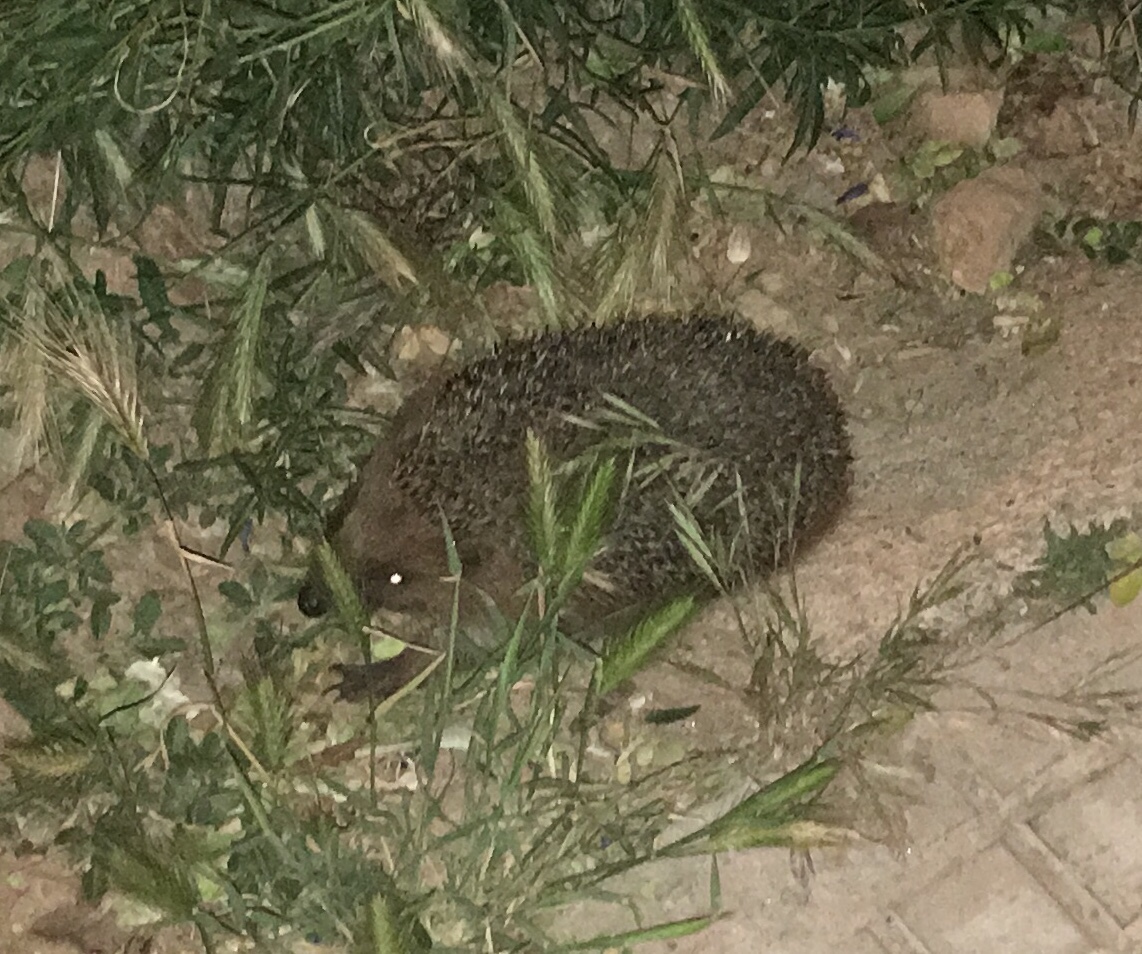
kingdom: Animalia
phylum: Chordata
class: Mammalia
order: Erinaceomorpha
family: Erinaceidae
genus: Erinaceus
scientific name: Erinaceus europaeus
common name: West european hedgehog
